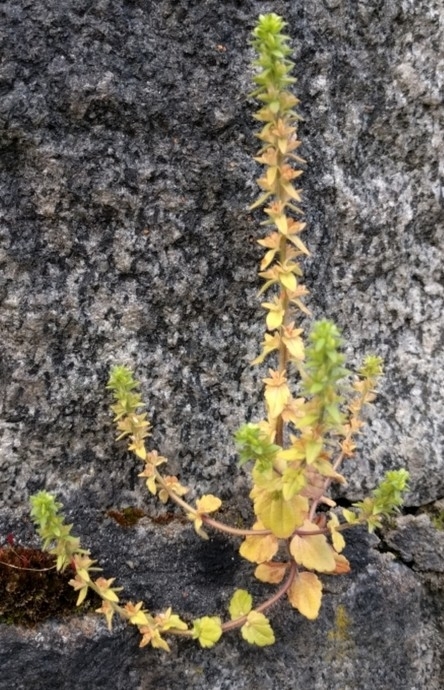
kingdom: Plantae
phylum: Tracheophyta
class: Magnoliopsida
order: Lamiales
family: Plantaginaceae
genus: Veronica
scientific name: Veronica arvensis
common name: Corn speedwell
